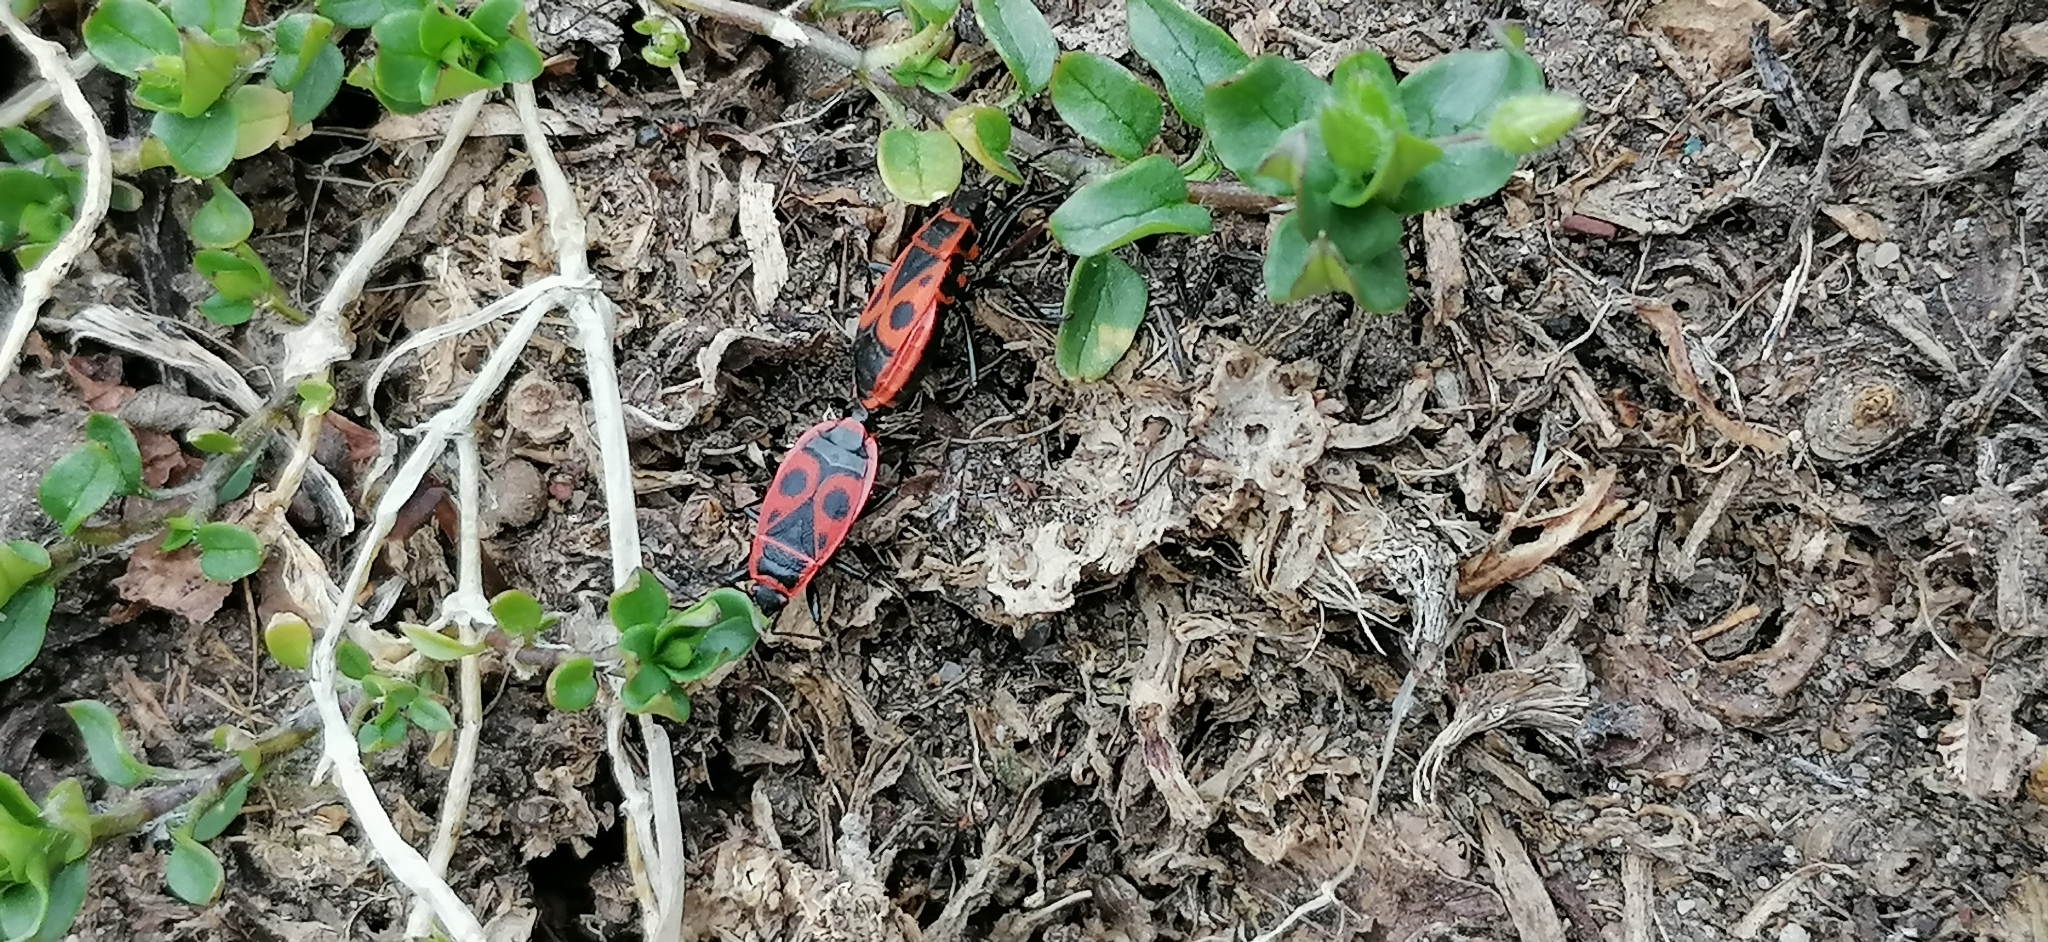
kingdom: Animalia
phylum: Arthropoda
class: Insecta
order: Hemiptera
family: Pyrrhocoridae
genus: Pyrrhocoris
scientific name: Pyrrhocoris apterus
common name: Firebug
